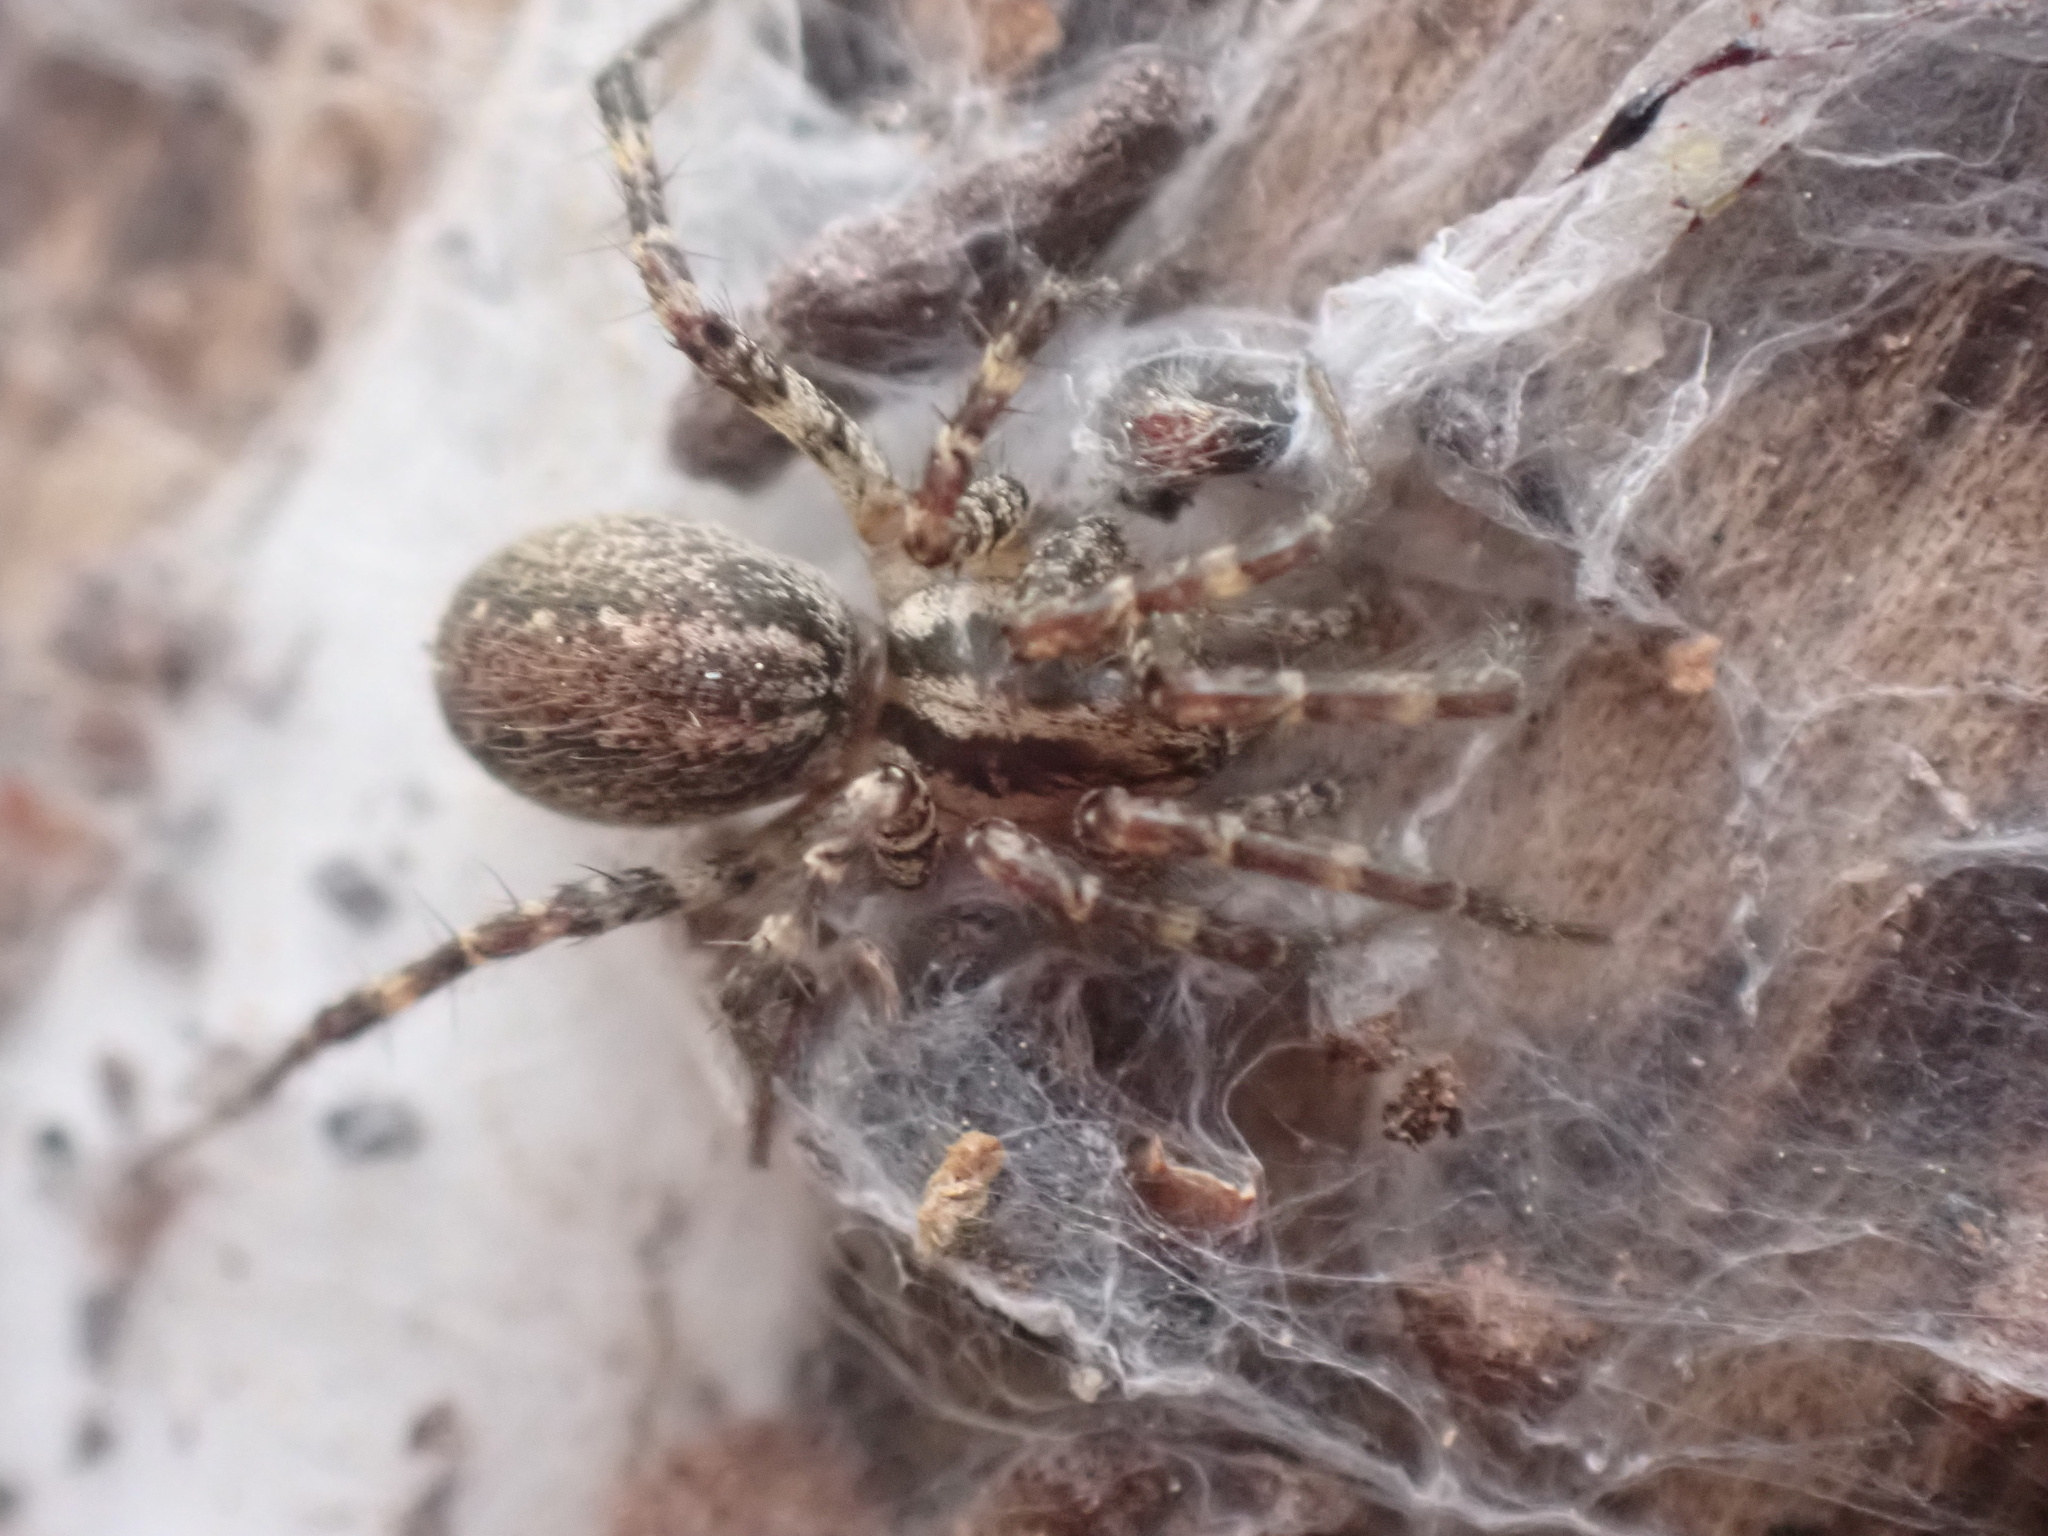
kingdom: Animalia
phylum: Arthropoda
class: Arachnida
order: Araneae
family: Agelenidae
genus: Barronopsis
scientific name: Barronopsis texana
